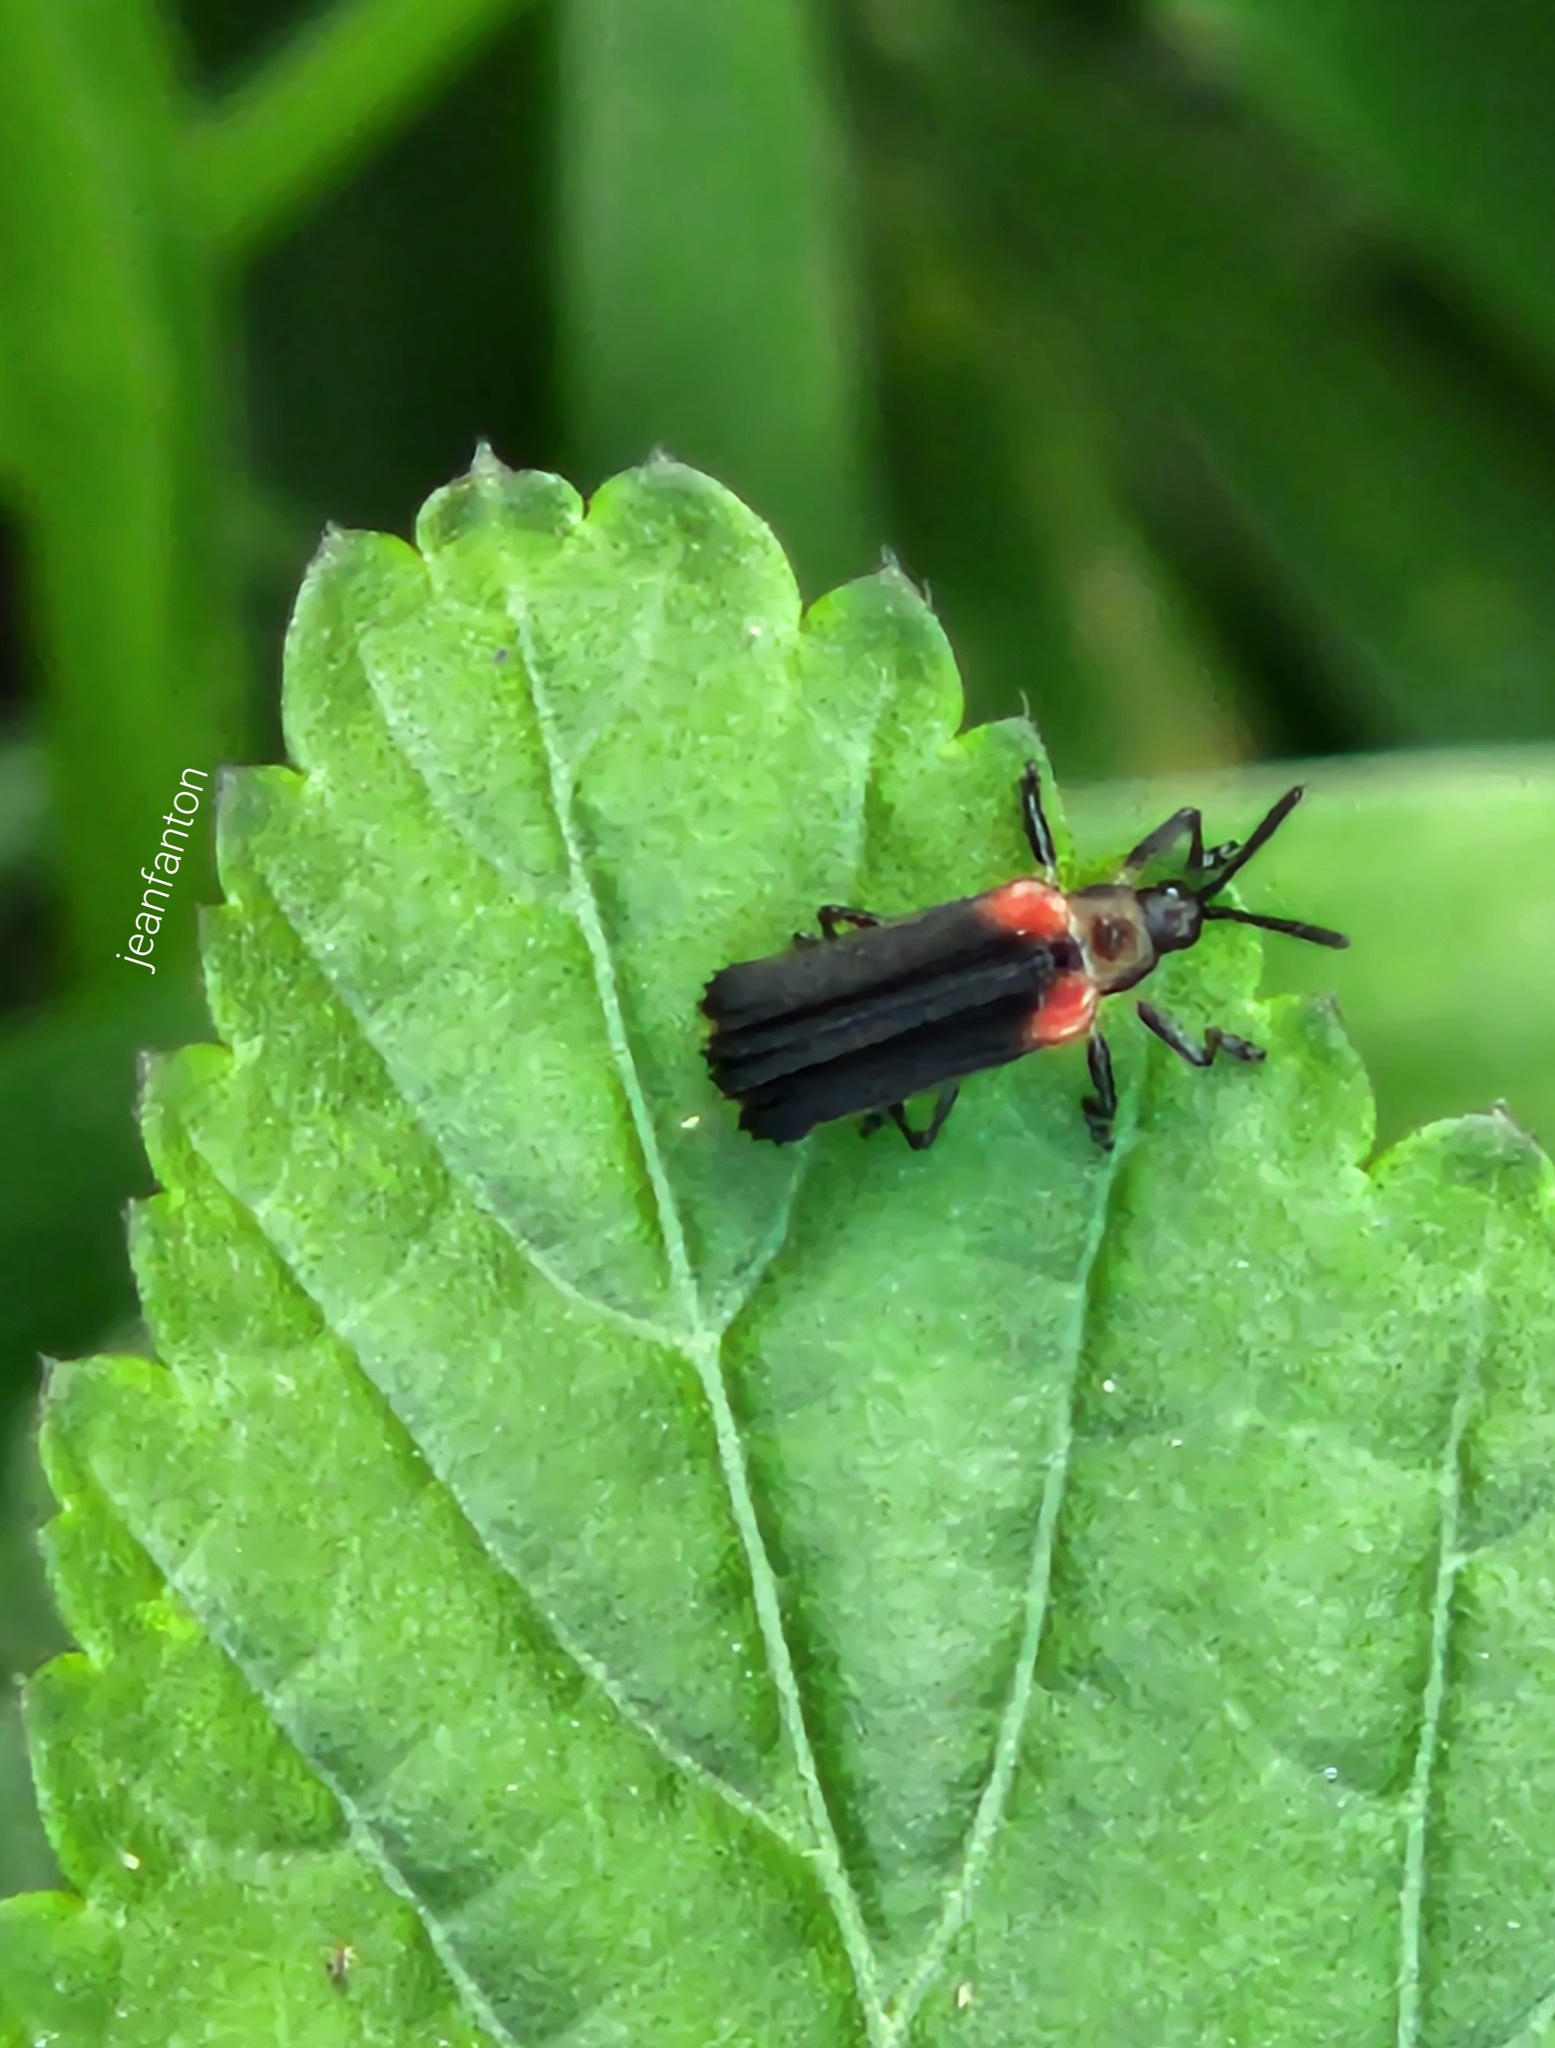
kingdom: Animalia
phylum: Arthropoda
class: Insecta
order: Coleoptera
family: Chrysomelidae
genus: Heterispa
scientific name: Heterispa vinula
